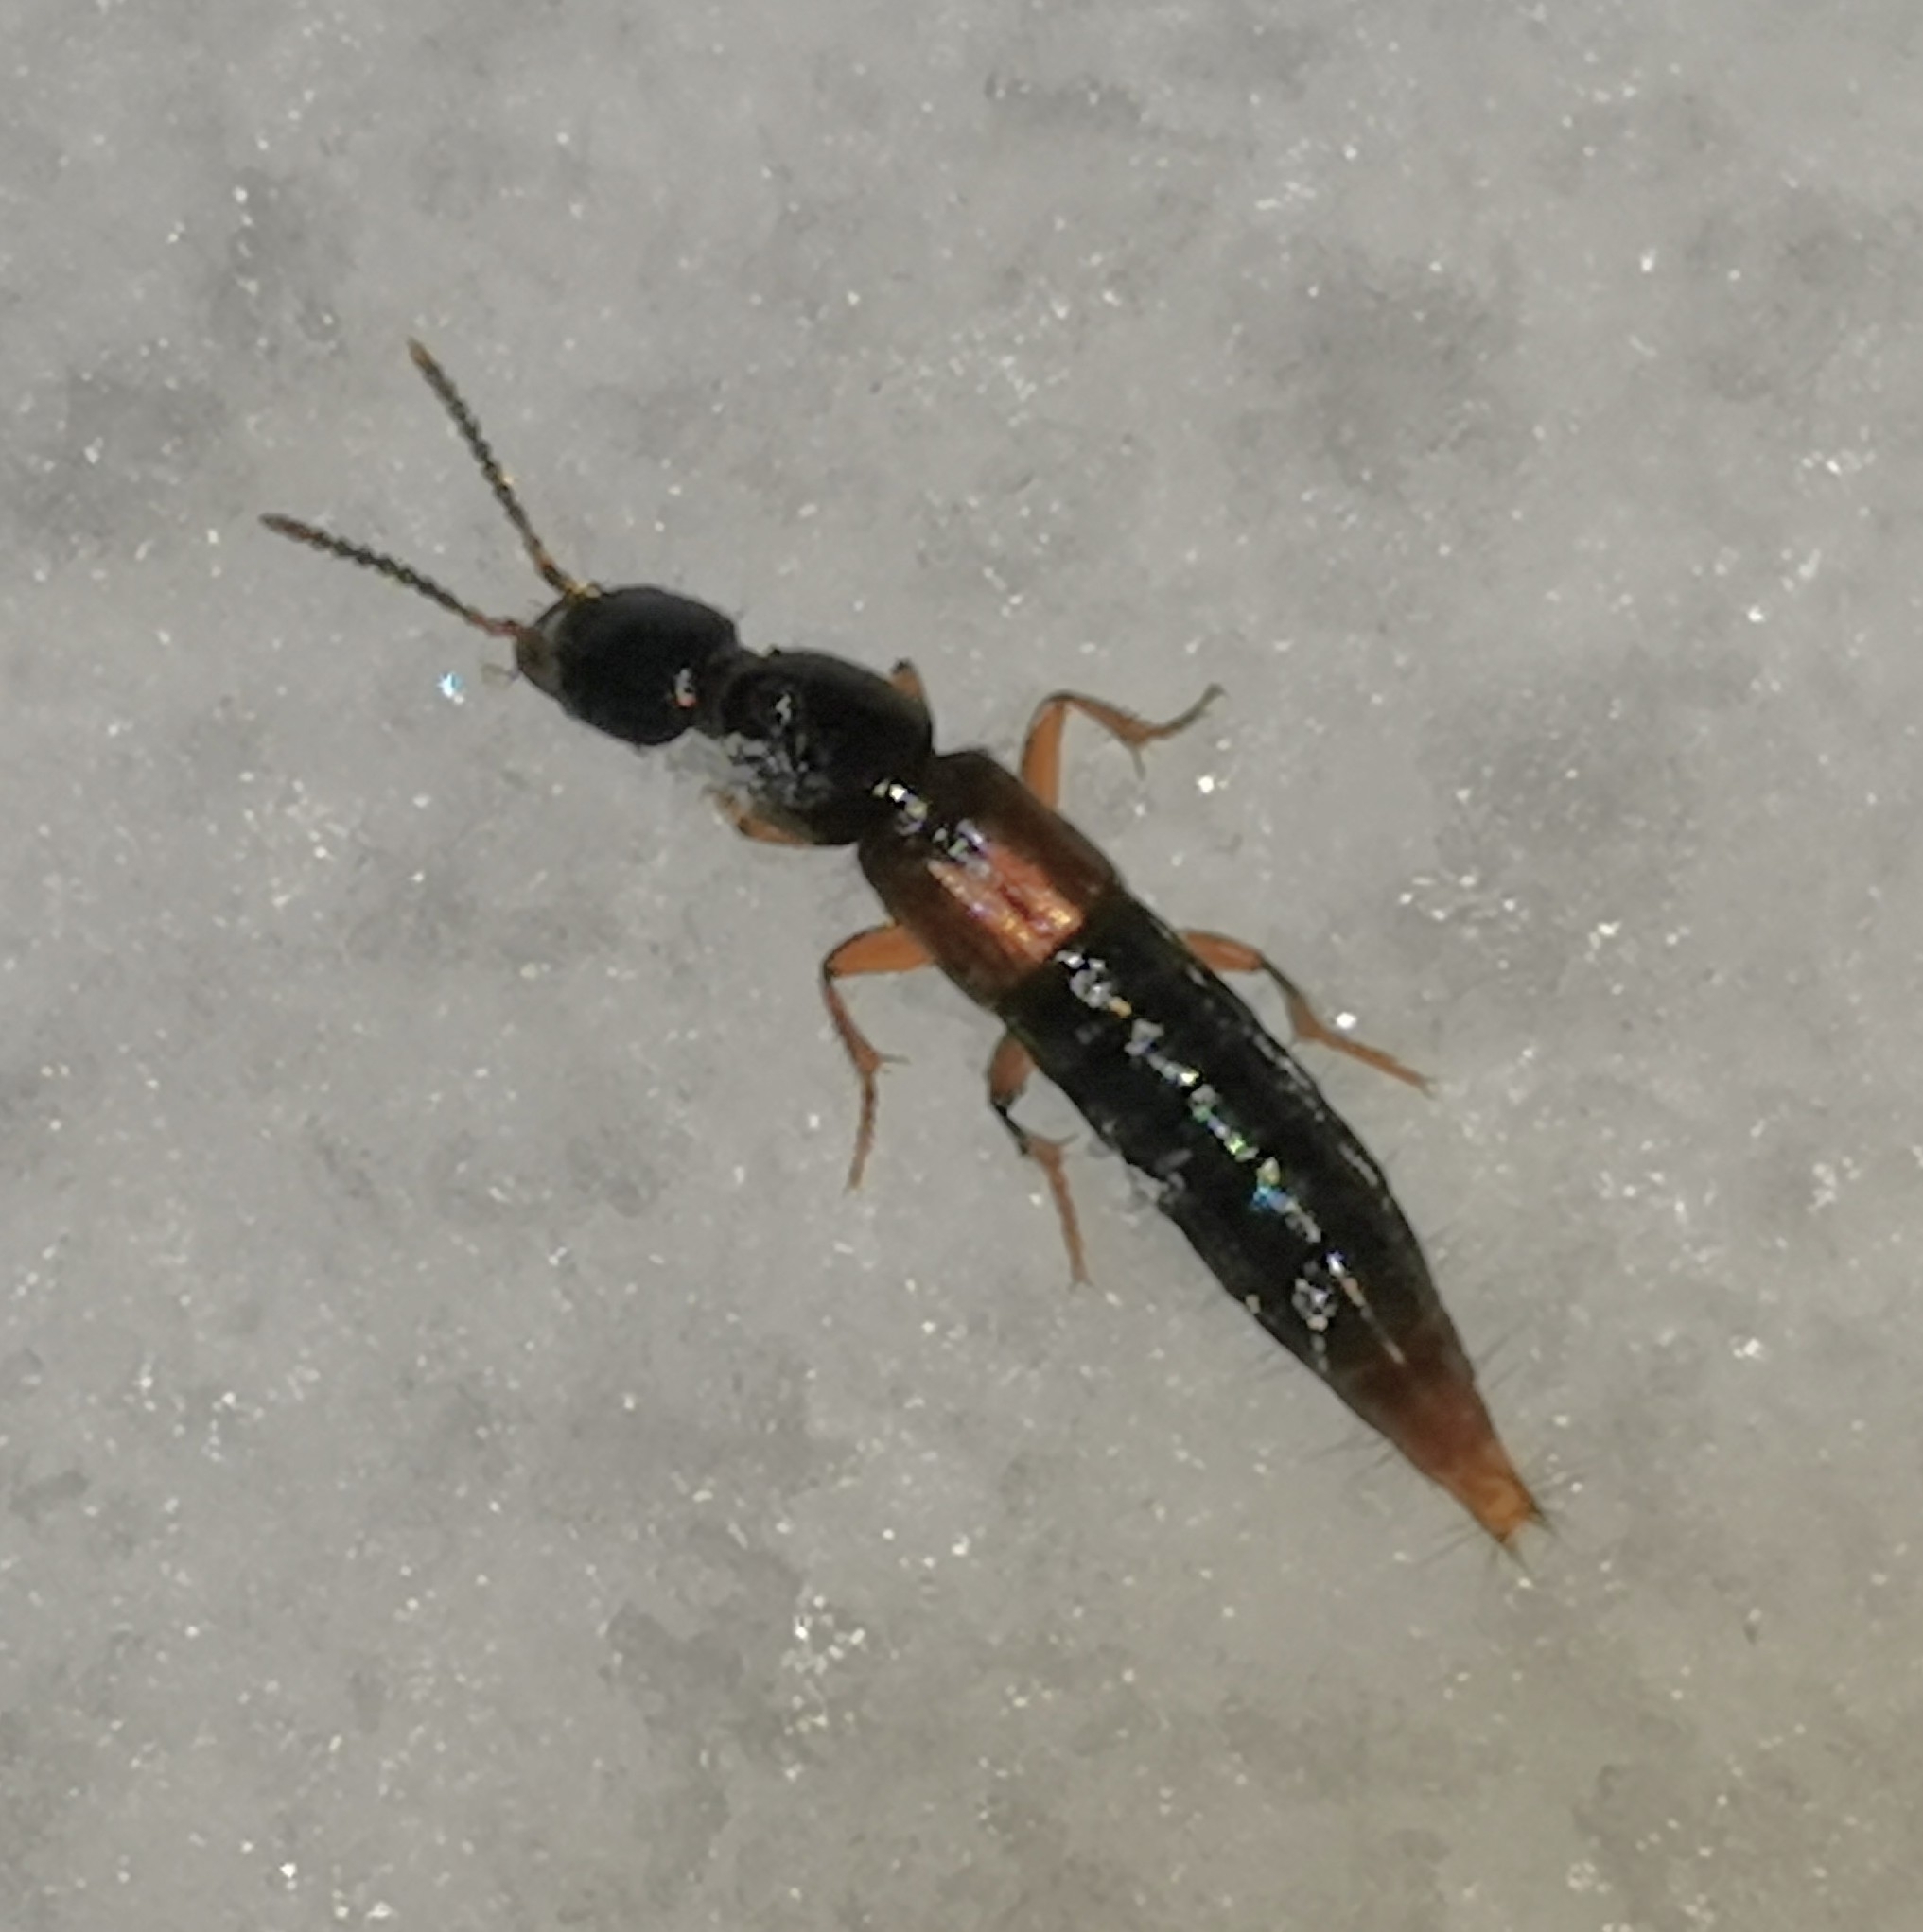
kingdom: Animalia
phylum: Arthropoda
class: Insecta
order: Coleoptera
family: Staphylinidae
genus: Othius
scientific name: Othius punctulatus
